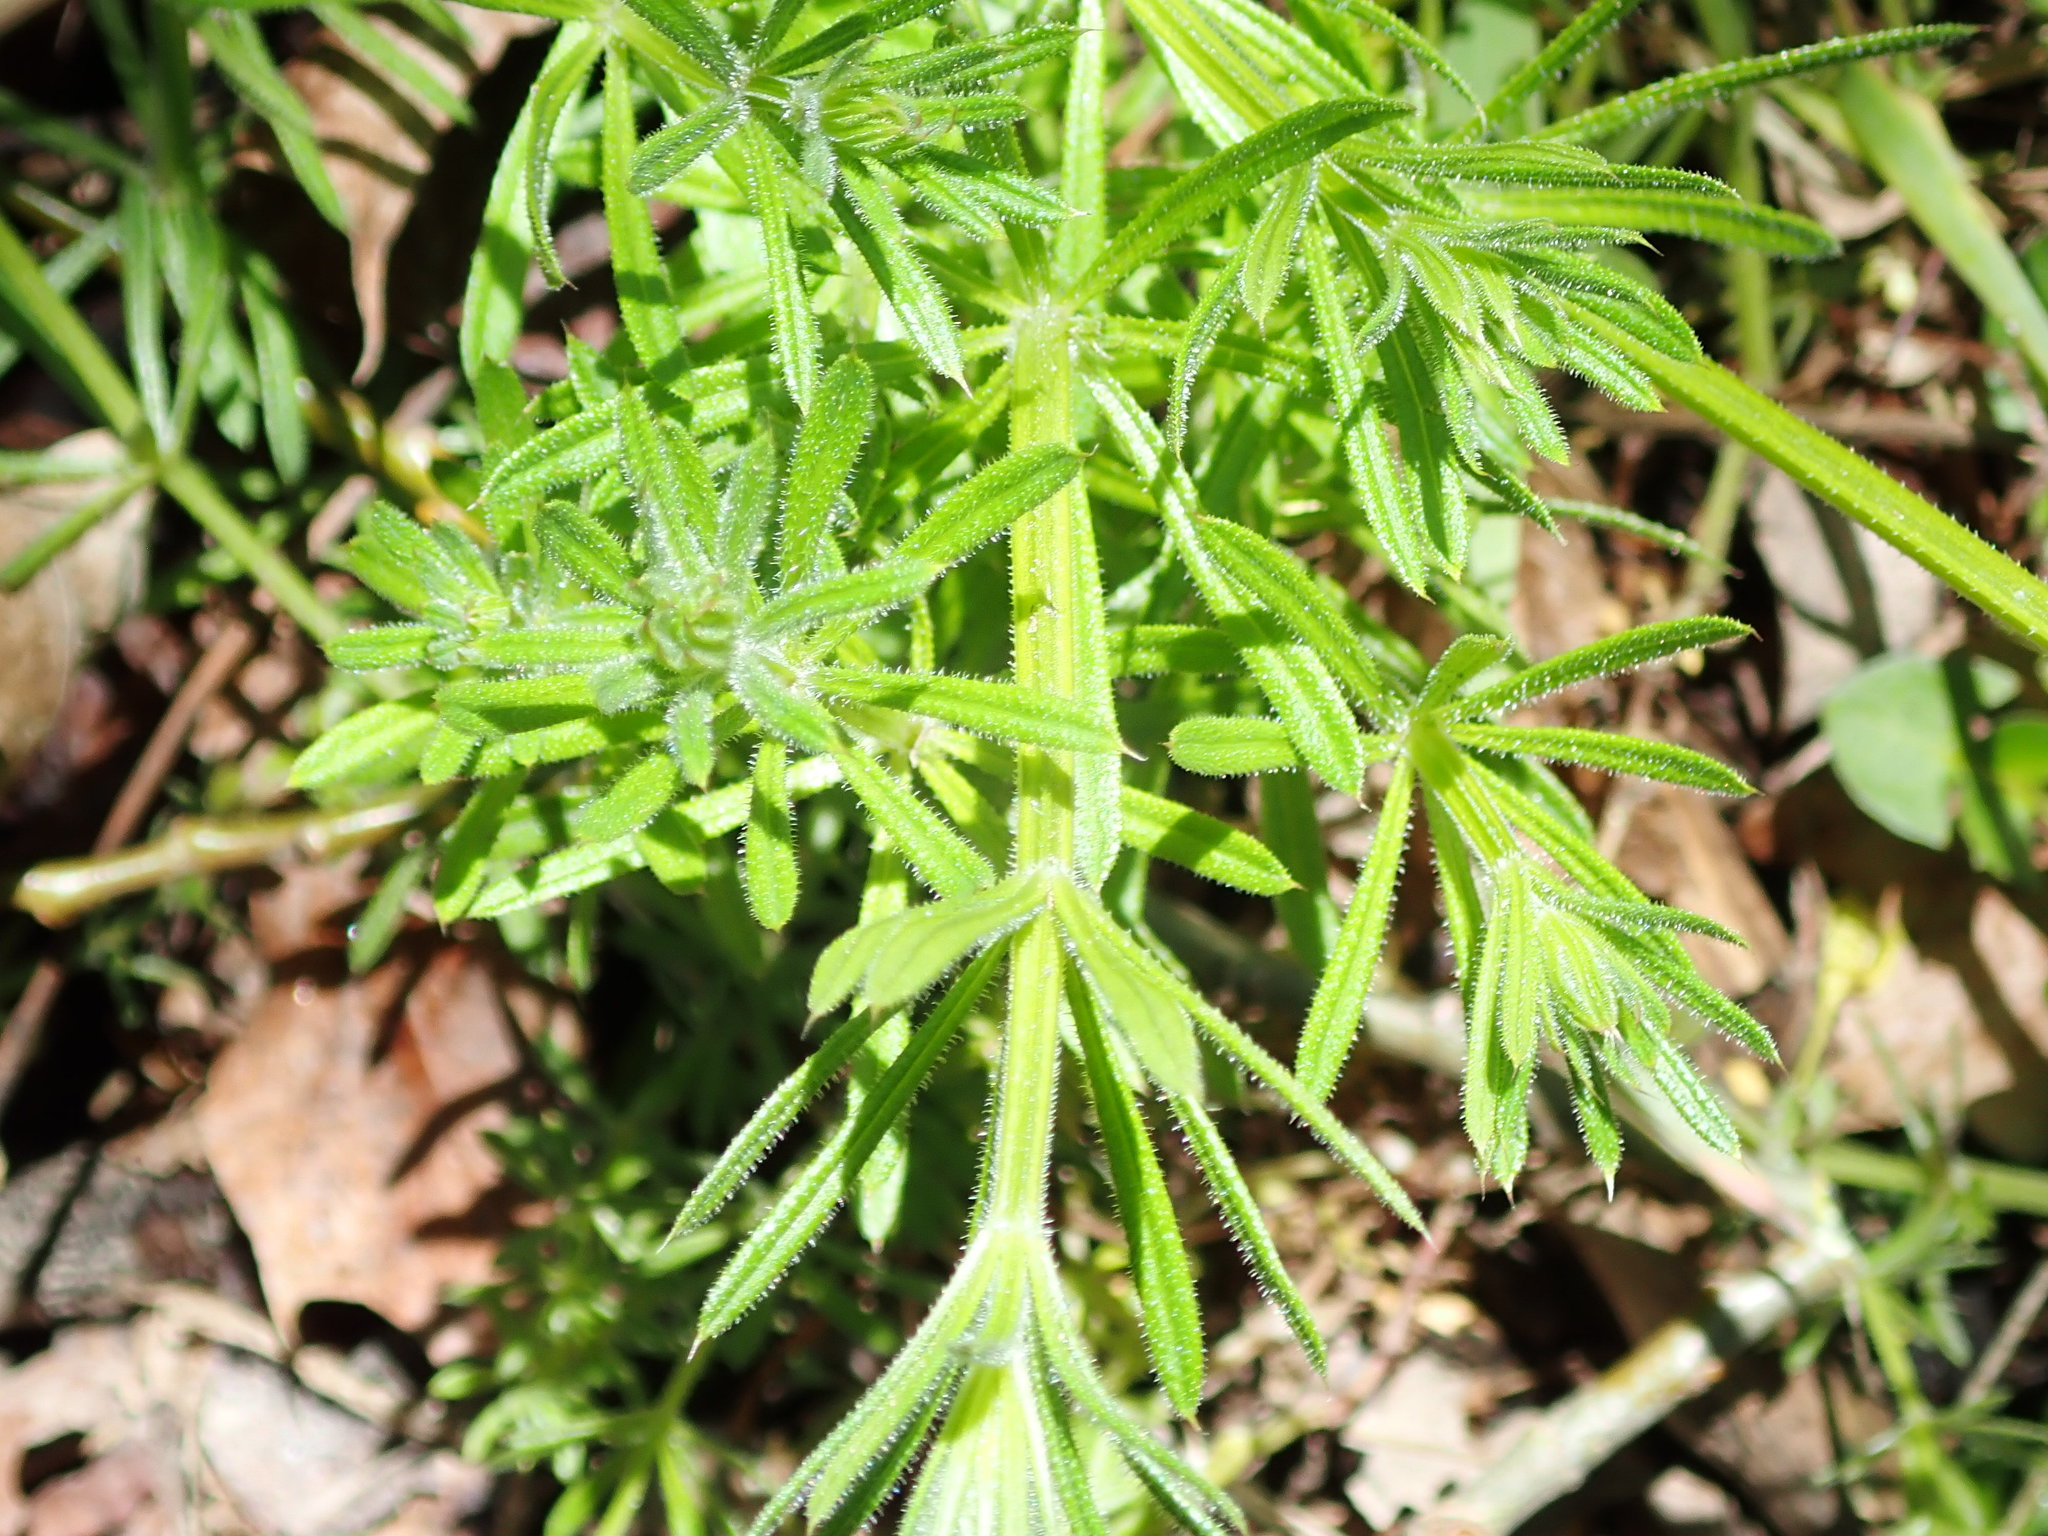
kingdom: Plantae
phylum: Tracheophyta
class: Magnoliopsida
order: Gentianales
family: Rubiaceae
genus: Galium
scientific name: Galium aparine
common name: Cleavers
